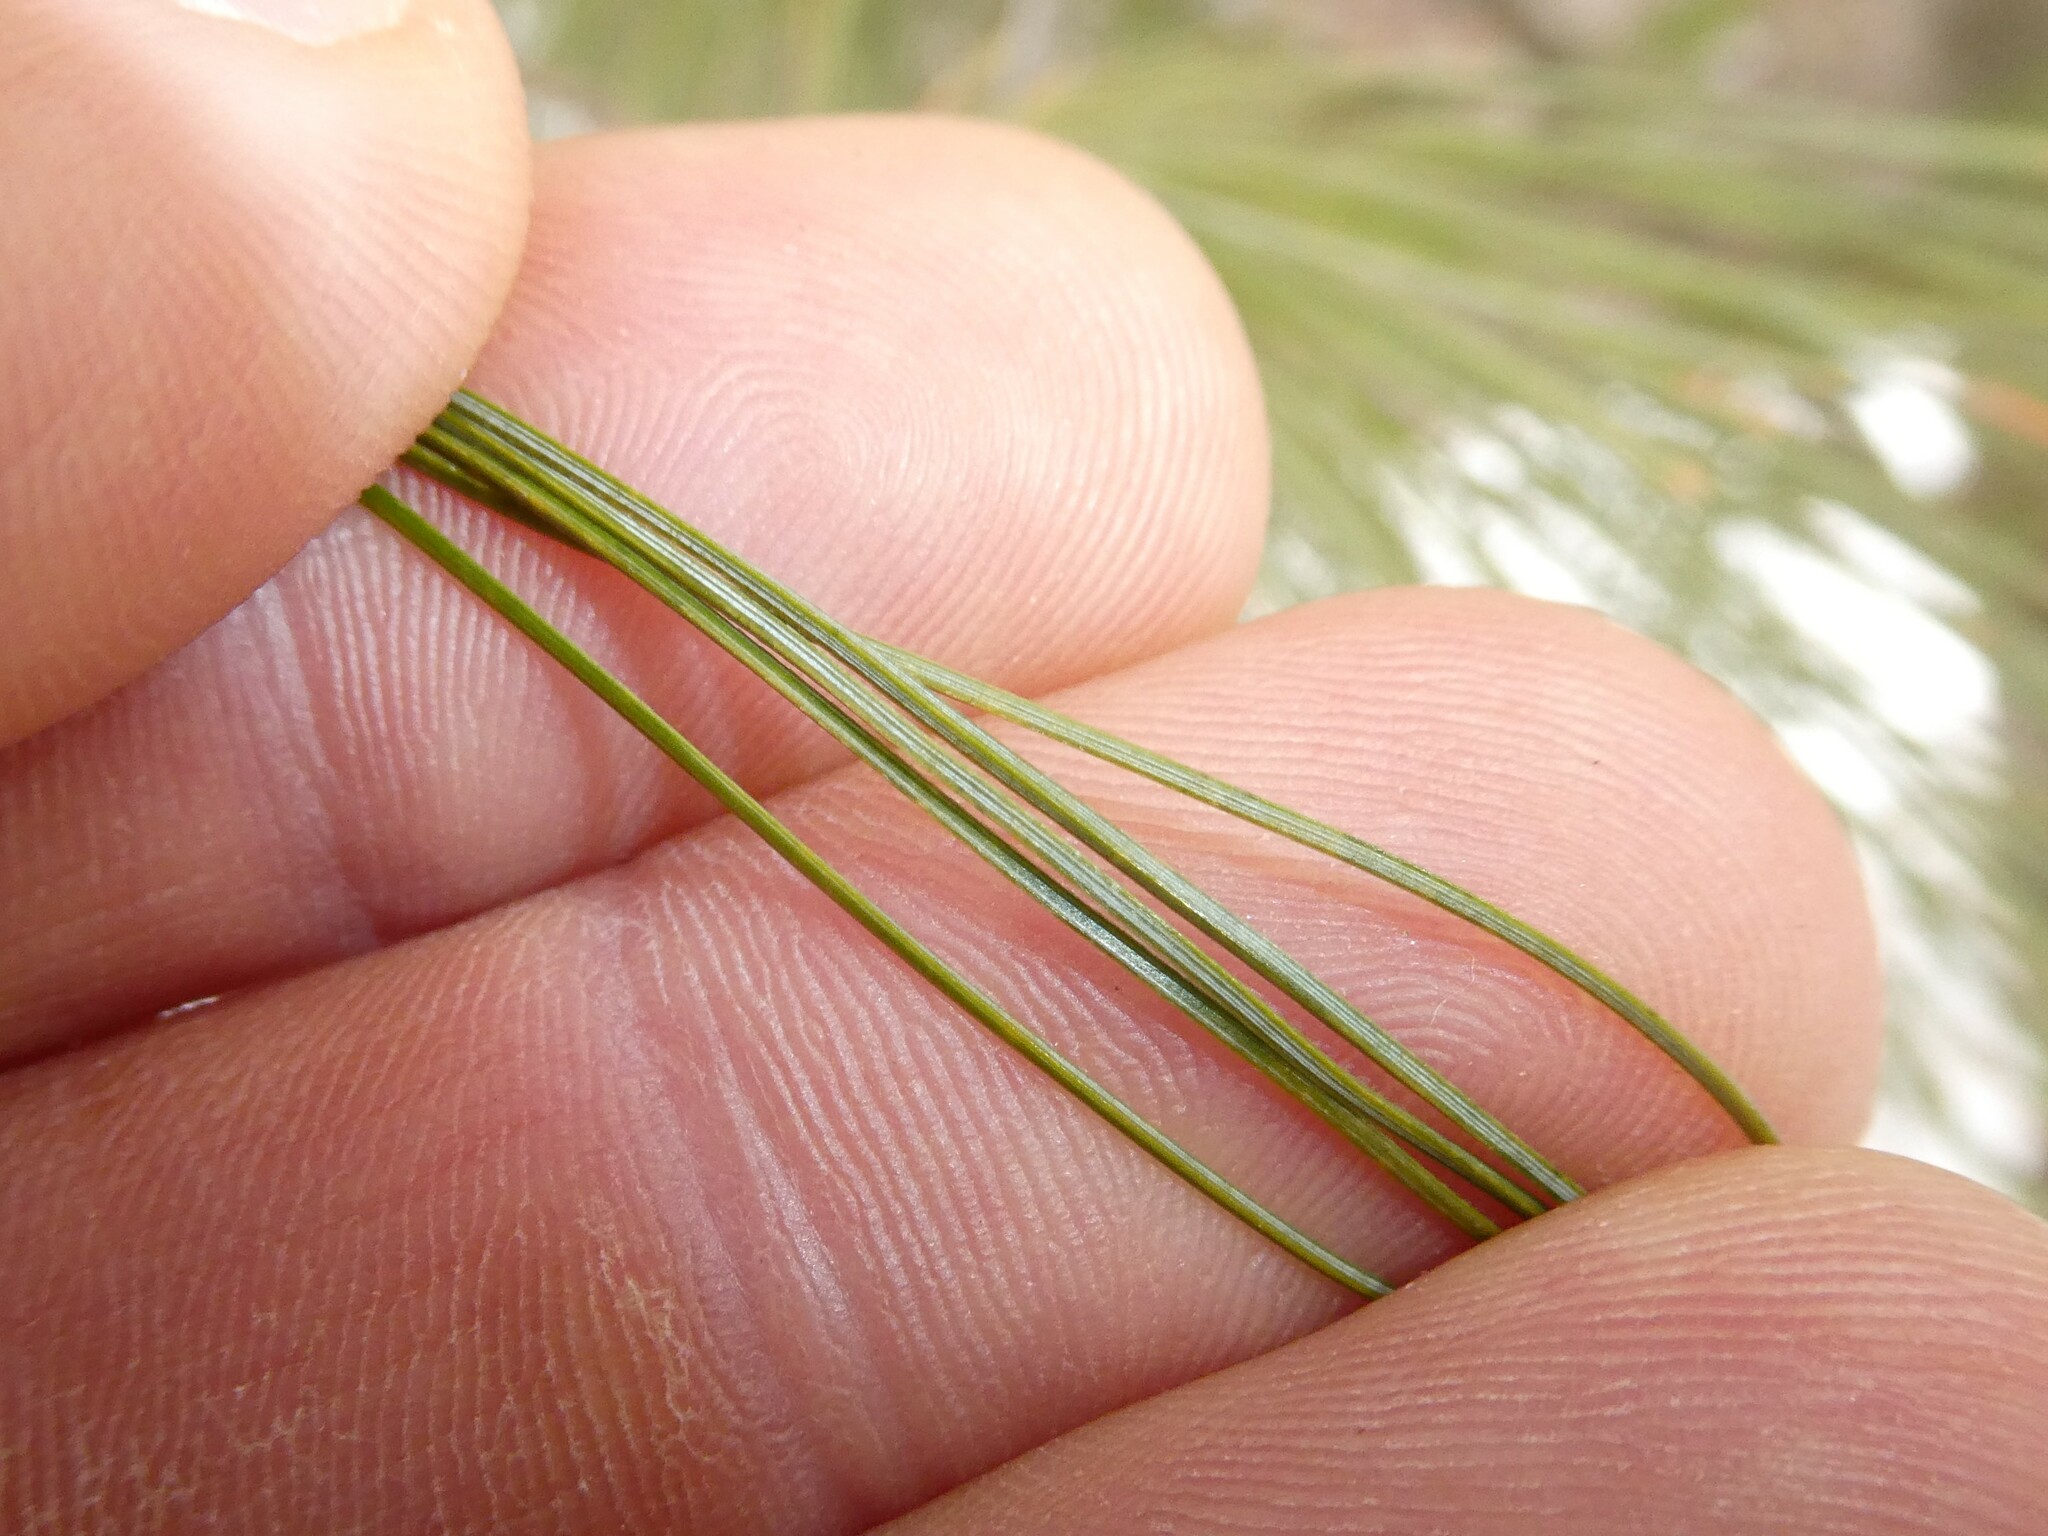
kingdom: Plantae
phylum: Tracheophyta
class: Pinopsida
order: Pinales
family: Pinaceae
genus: Pinus
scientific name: Pinus strobus
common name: Weymouth pine
